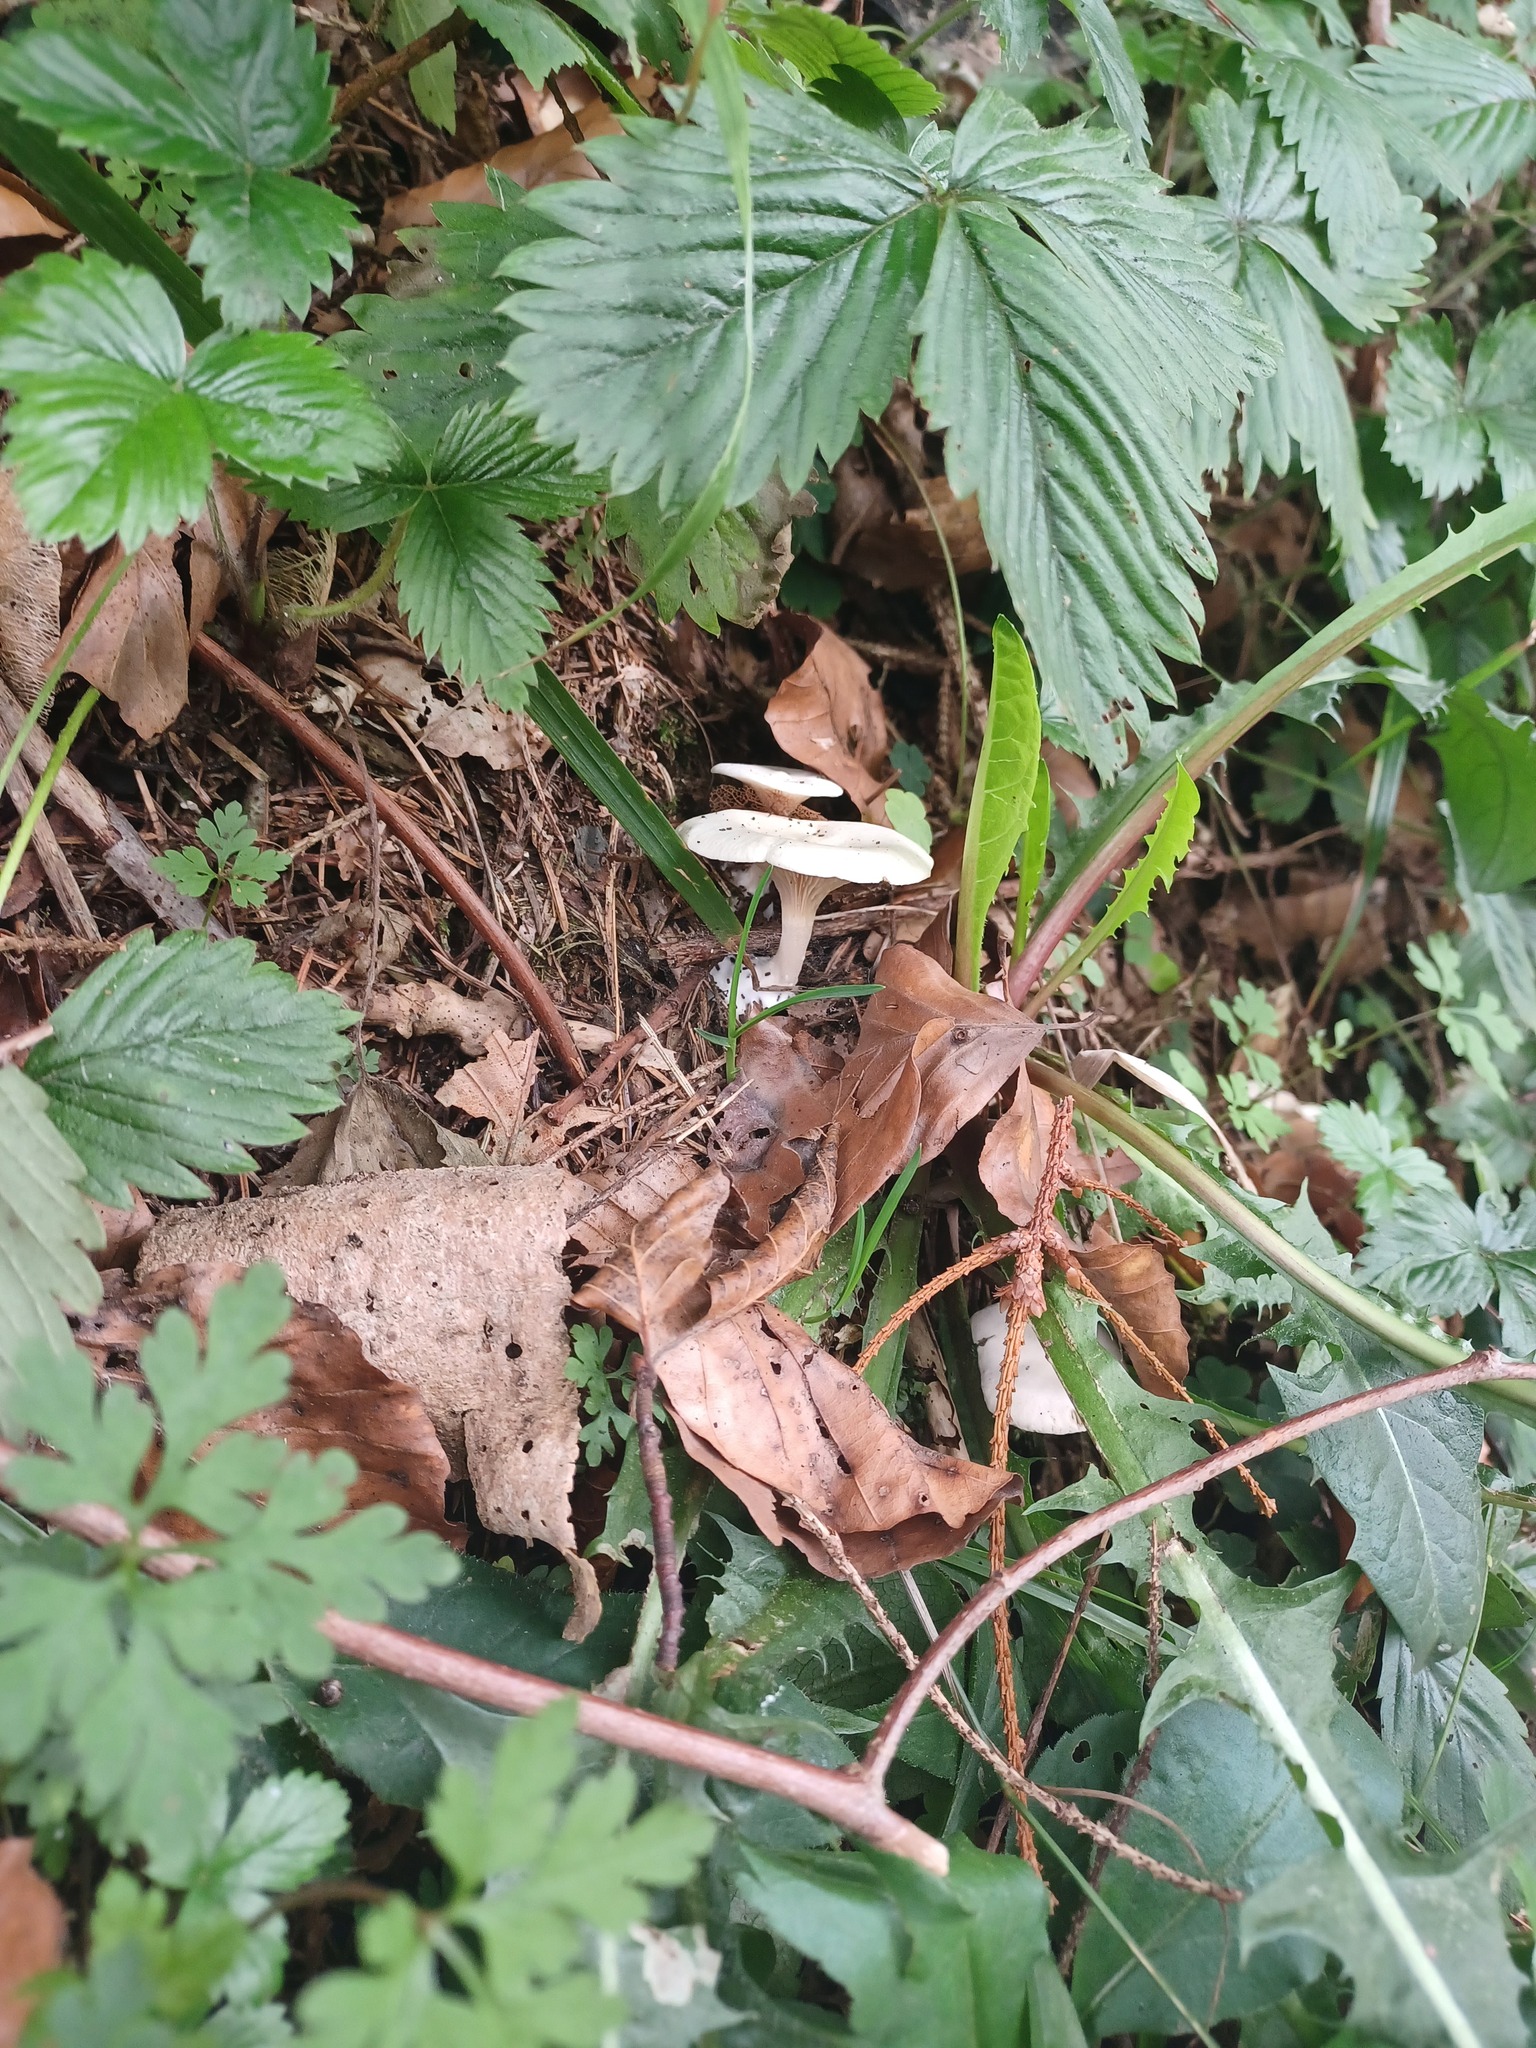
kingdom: Fungi
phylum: Basidiomycota
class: Agaricomycetes
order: Agaricales
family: Entolomataceae
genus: Clitopilus
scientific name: Clitopilus prunulus
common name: The miller
